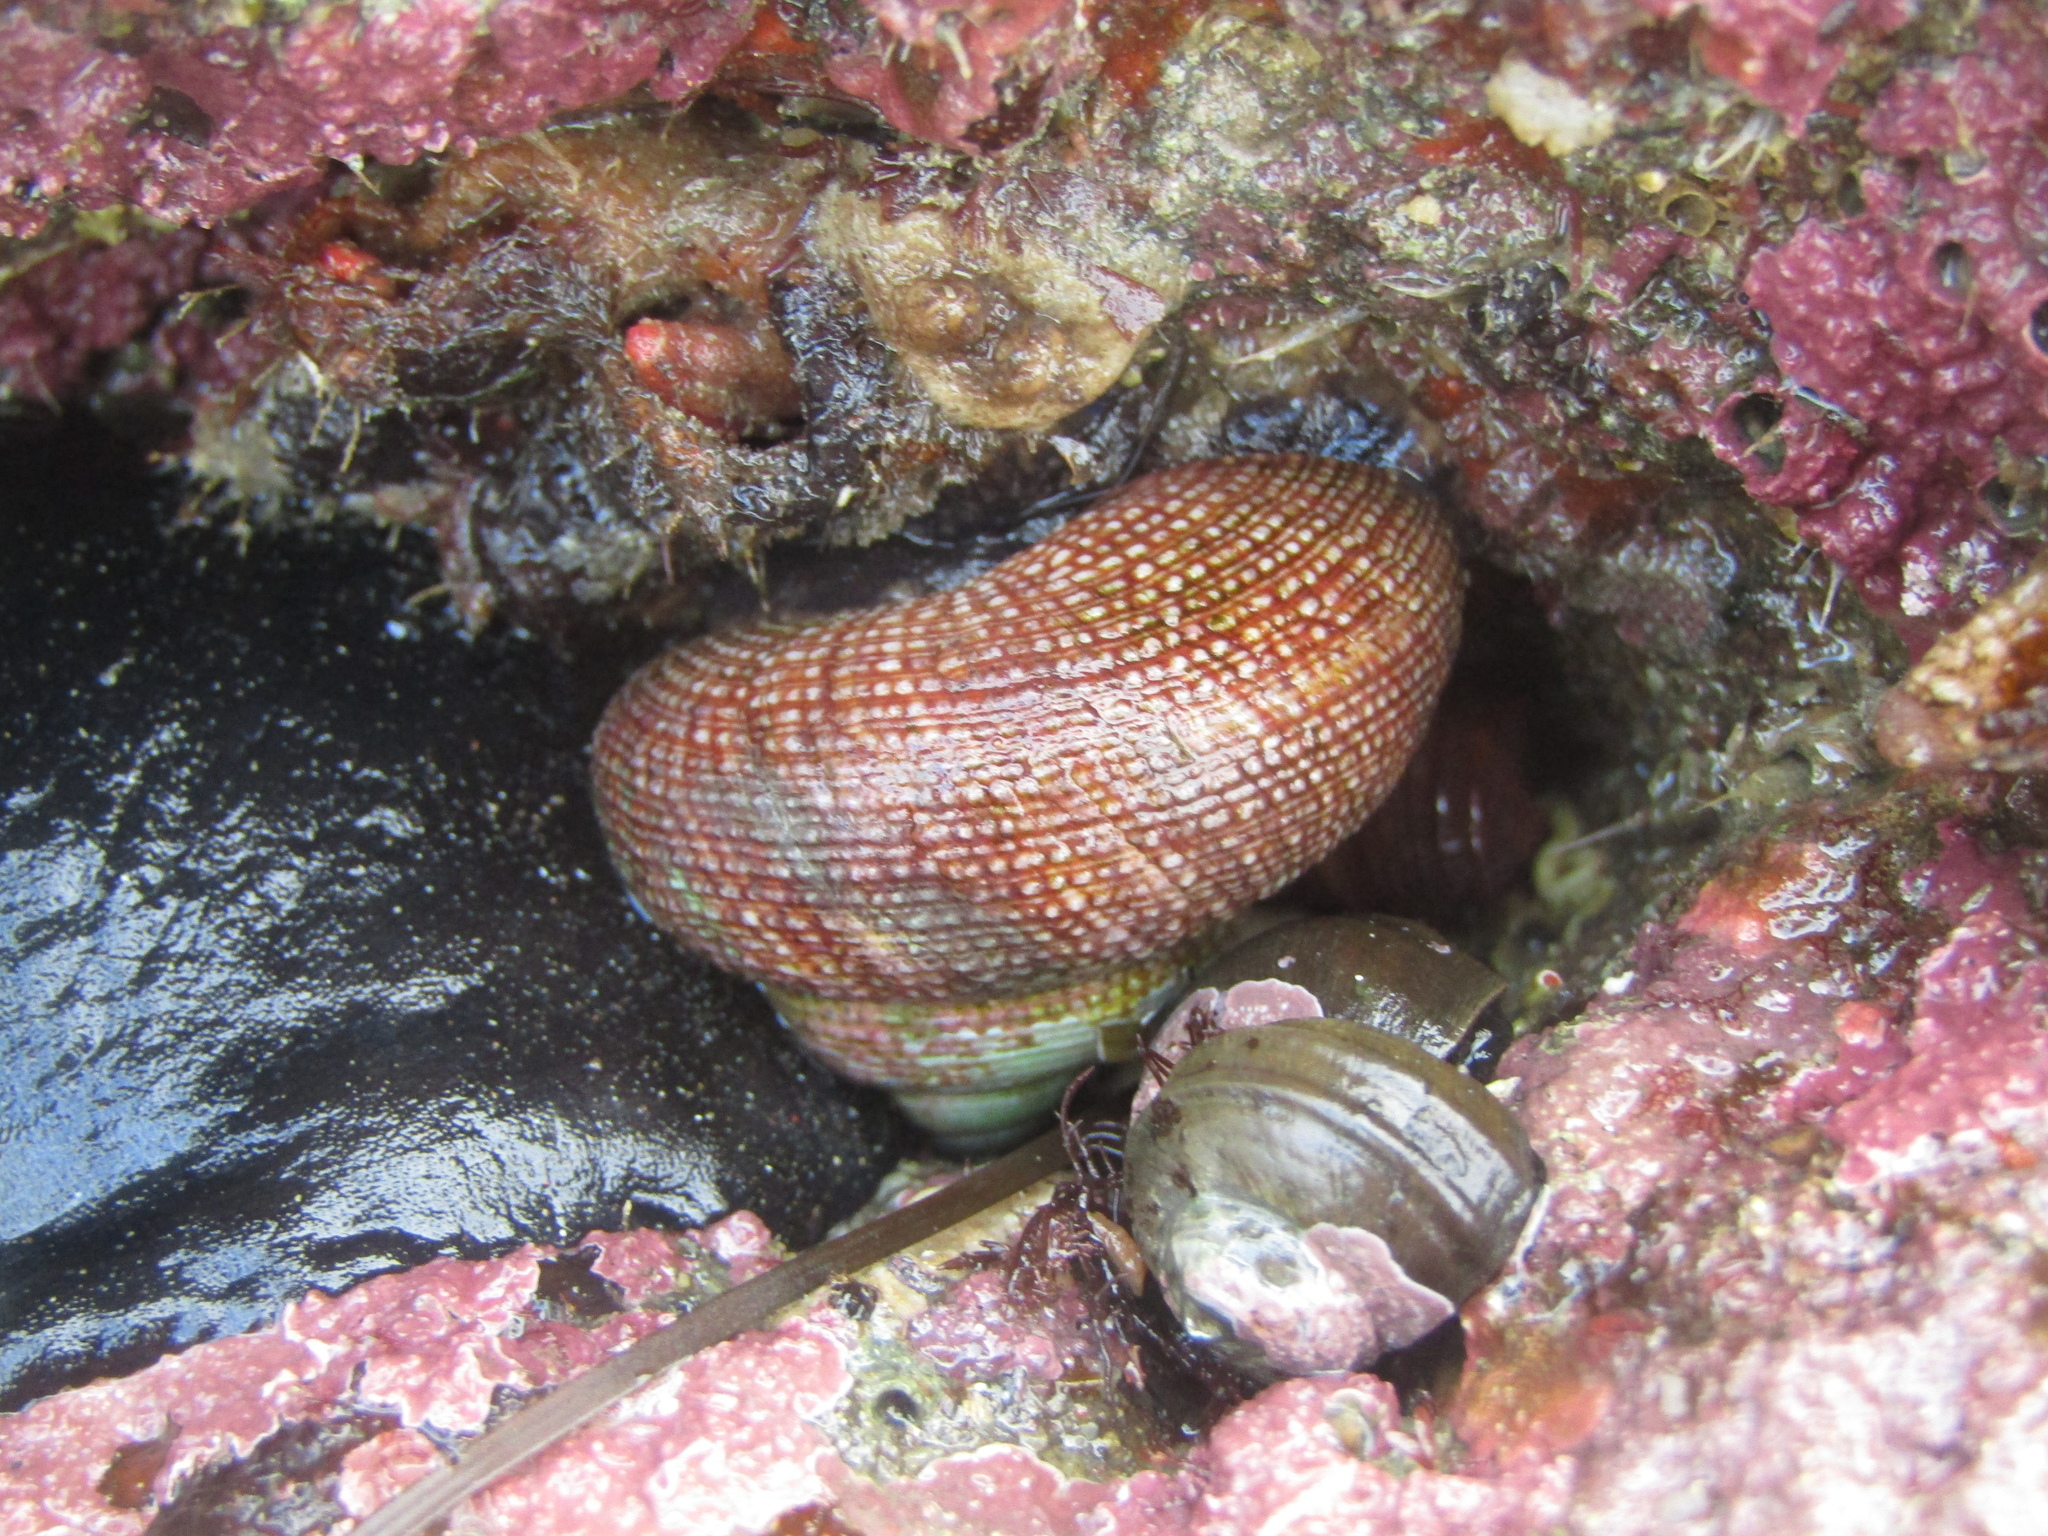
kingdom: Animalia
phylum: Mollusca
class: Gastropoda
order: Trochida
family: Calliostomatidae
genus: Maurea
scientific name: Maurea punctulata
